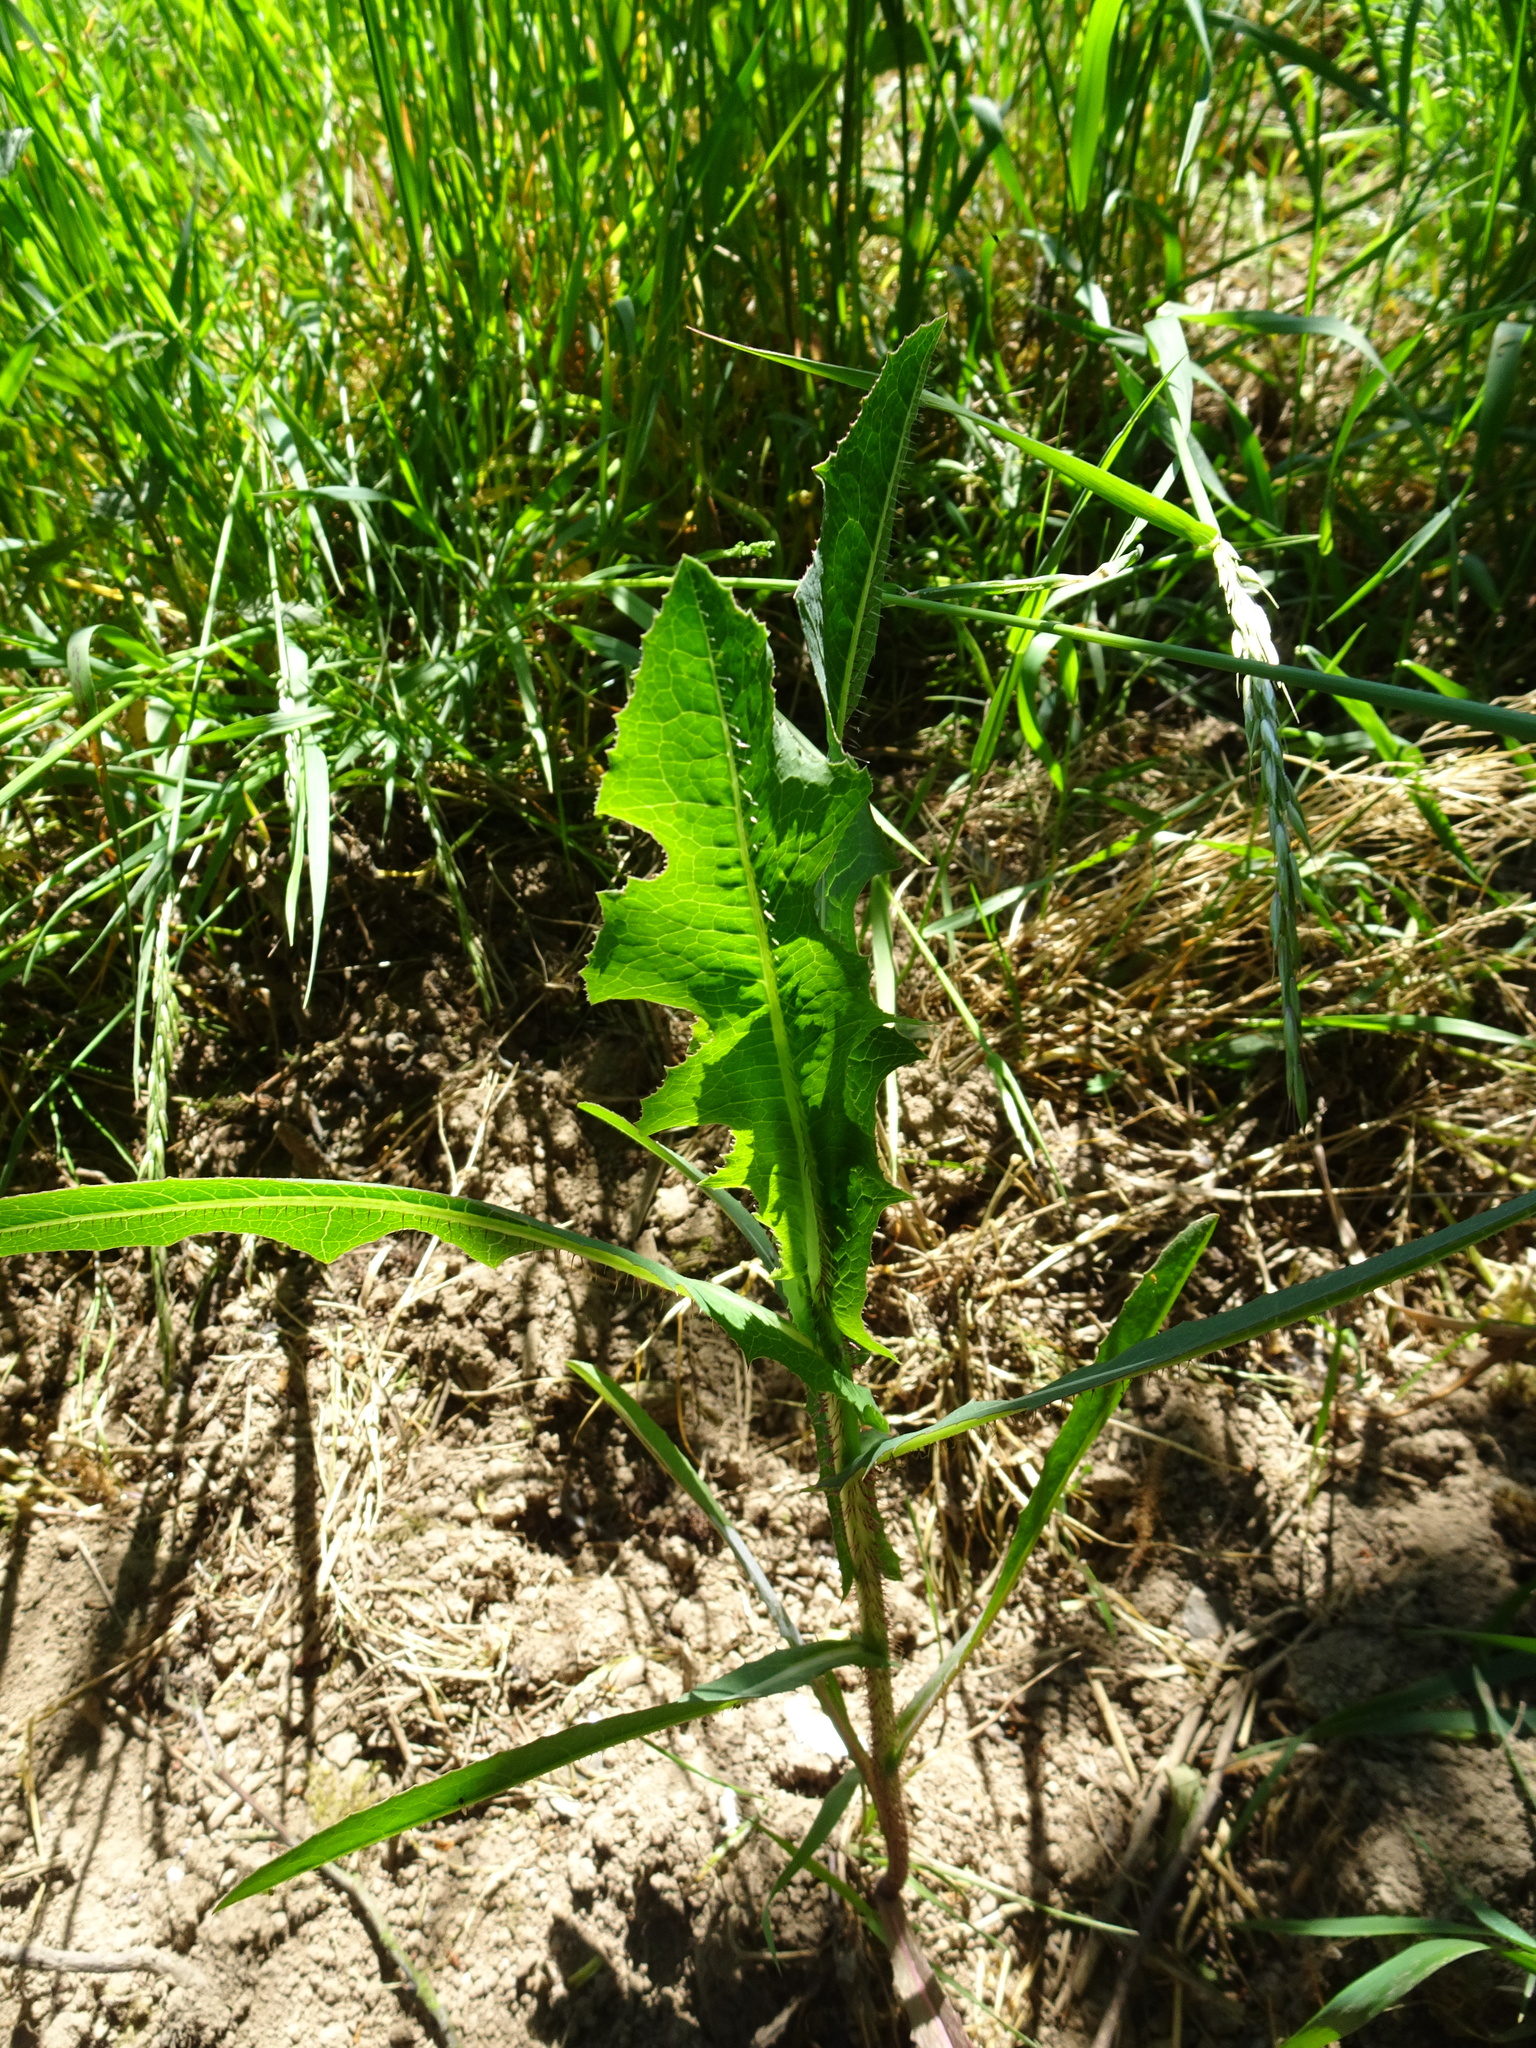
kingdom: Plantae
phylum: Tracheophyta
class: Magnoliopsida
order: Asterales
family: Asteraceae
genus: Lactuca
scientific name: Lactuca serriola
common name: Prickly lettuce
